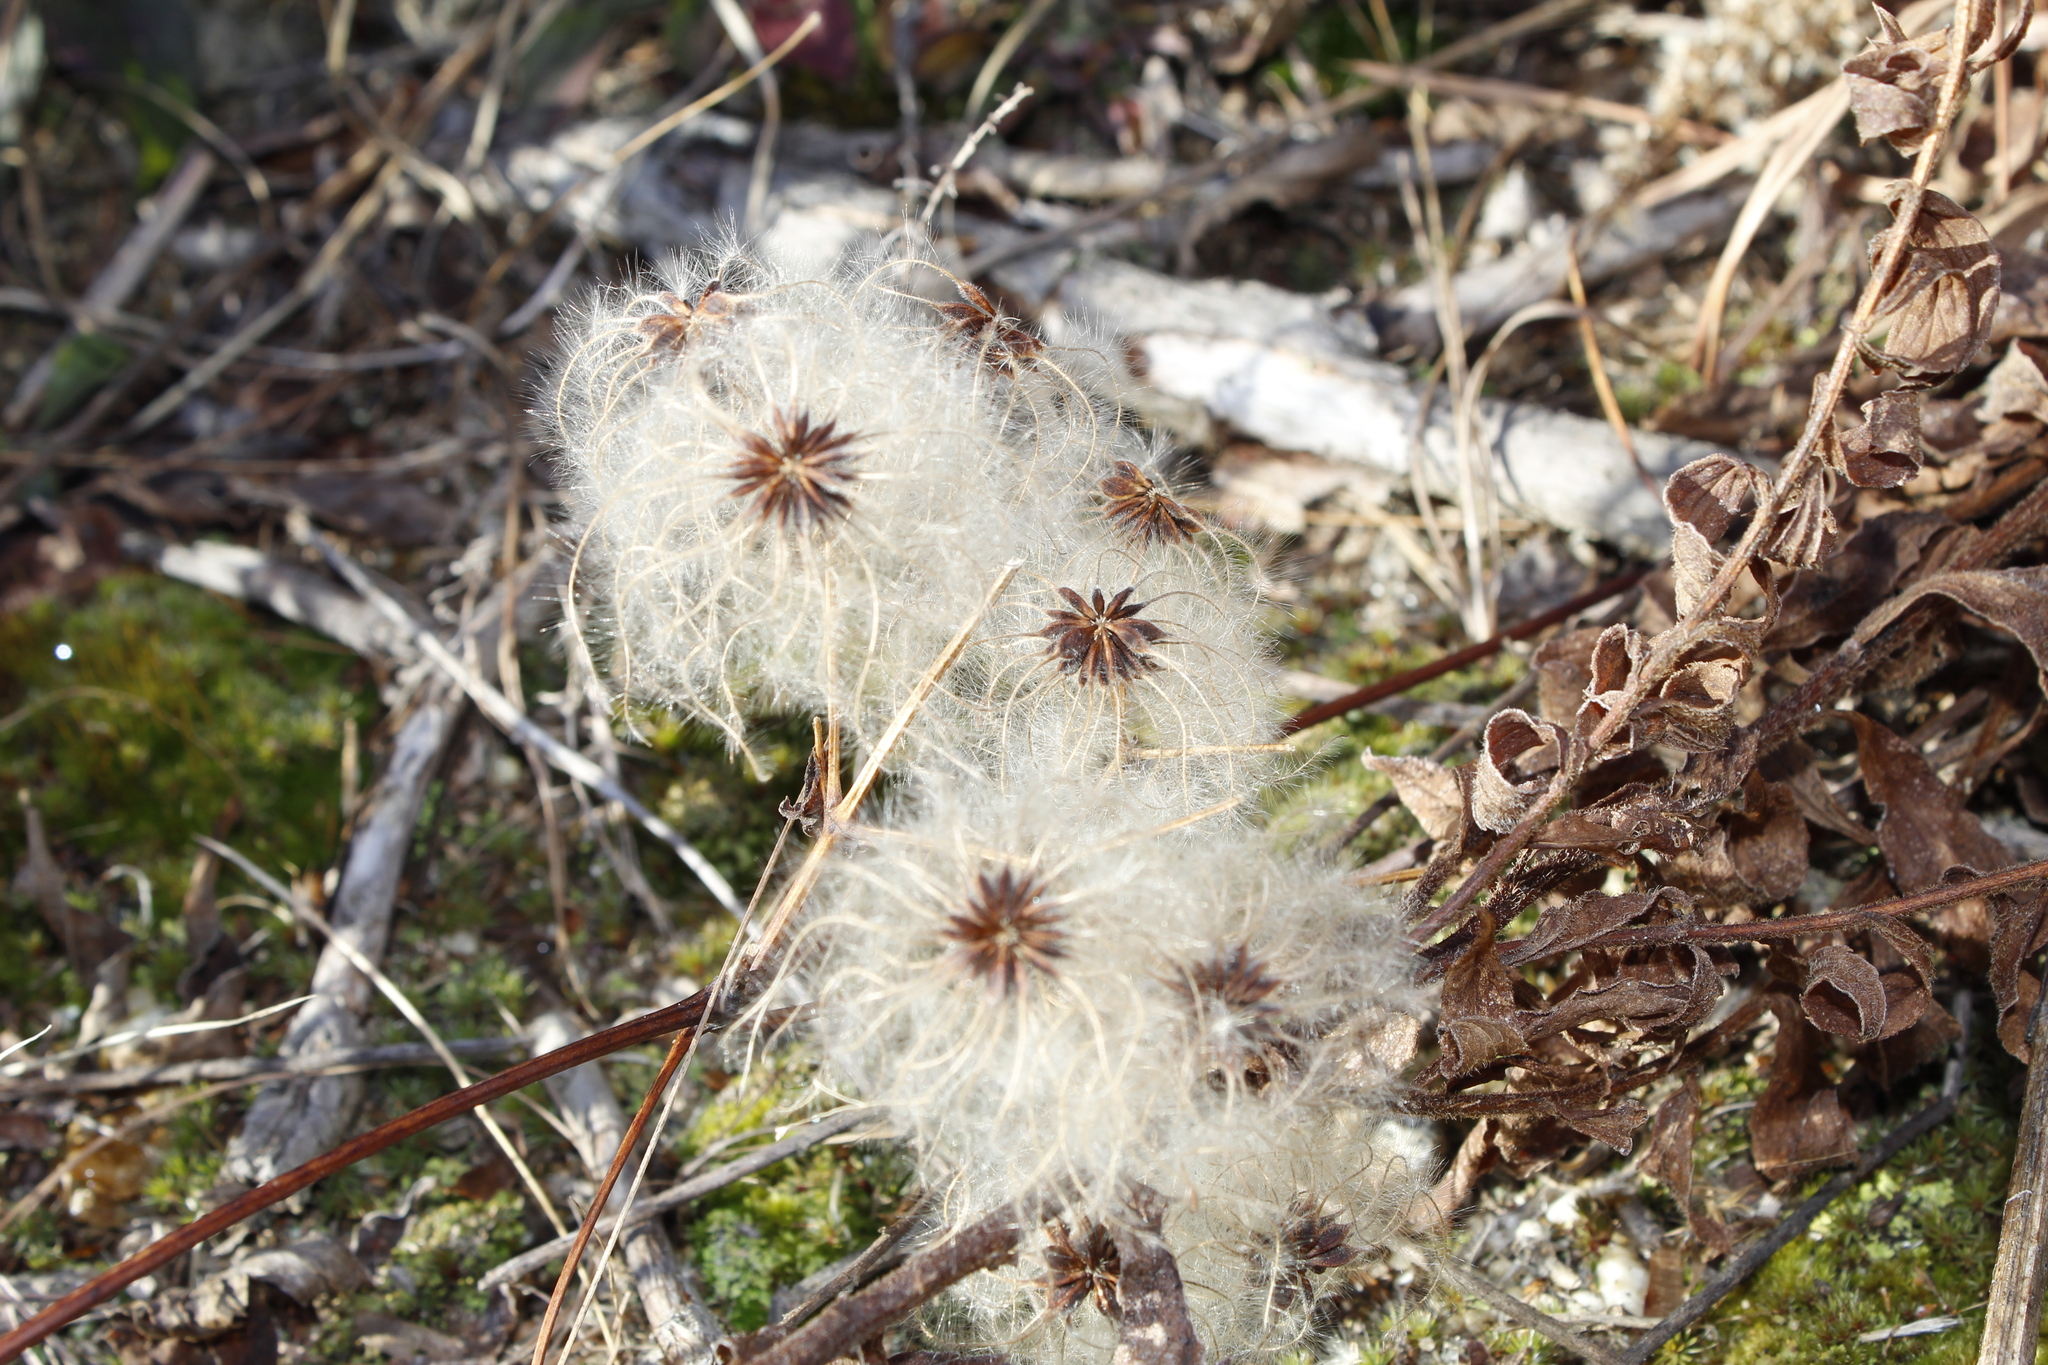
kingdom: Plantae
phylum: Tracheophyta
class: Magnoliopsida
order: Ranunculales
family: Ranunculaceae
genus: Clematis
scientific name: Clematis virginiana
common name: Virgin's-bower
